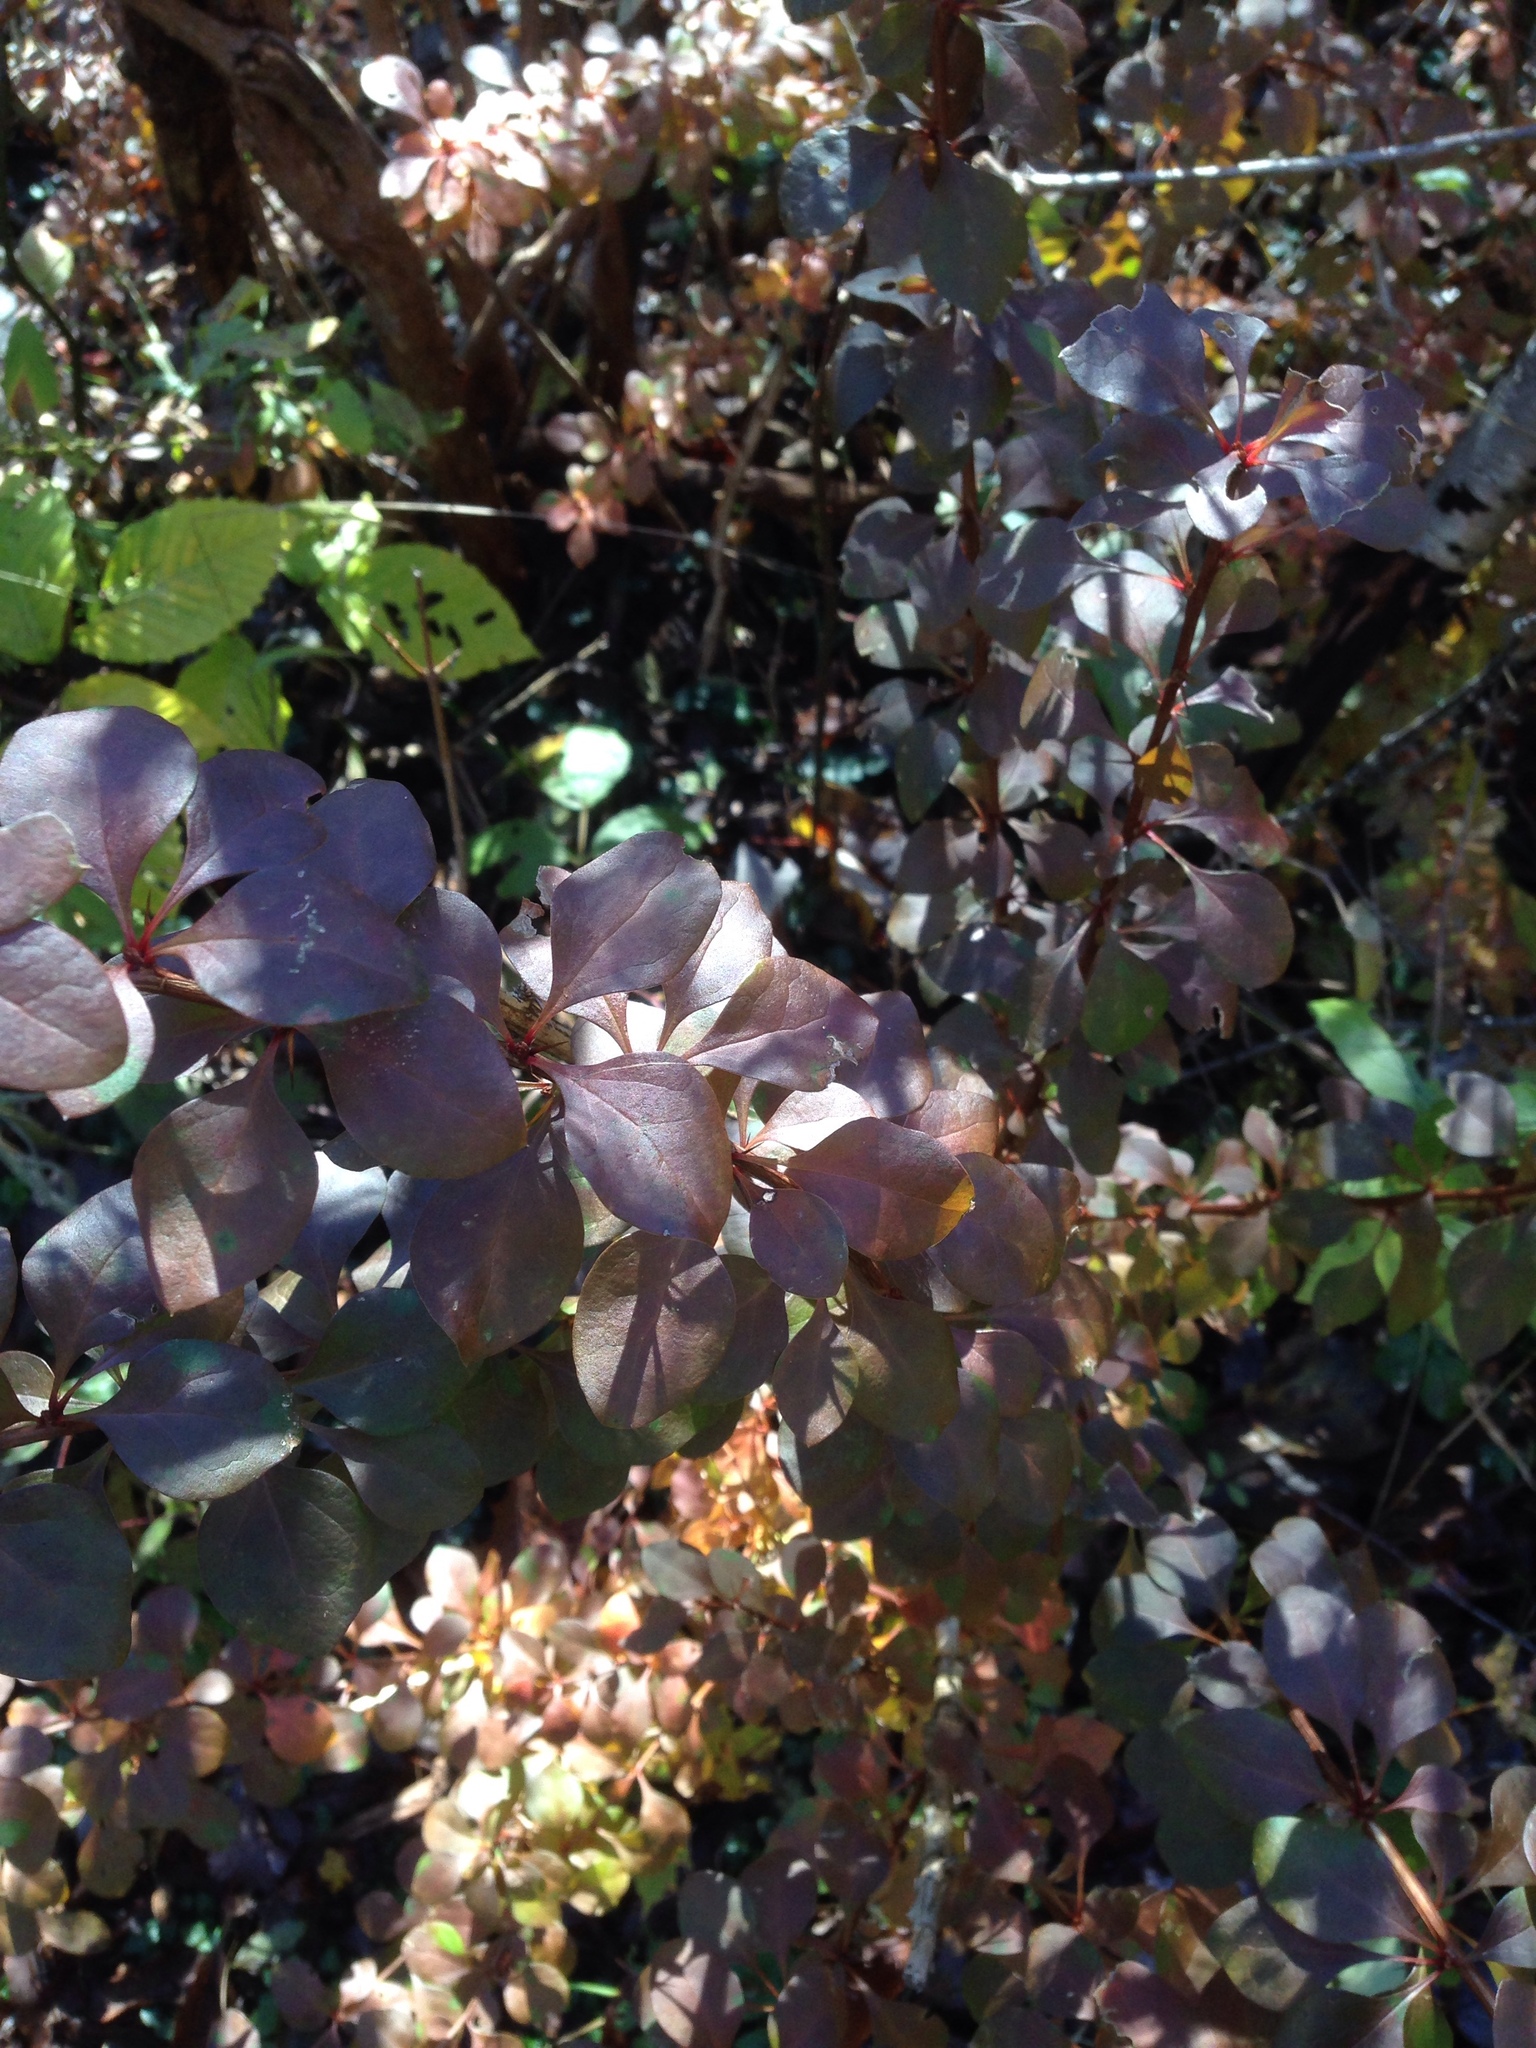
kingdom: Plantae
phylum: Tracheophyta
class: Magnoliopsida
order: Ranunculales
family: Berberidaceae
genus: Berberis
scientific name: Berberis thunbergii
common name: Japanese barberry
